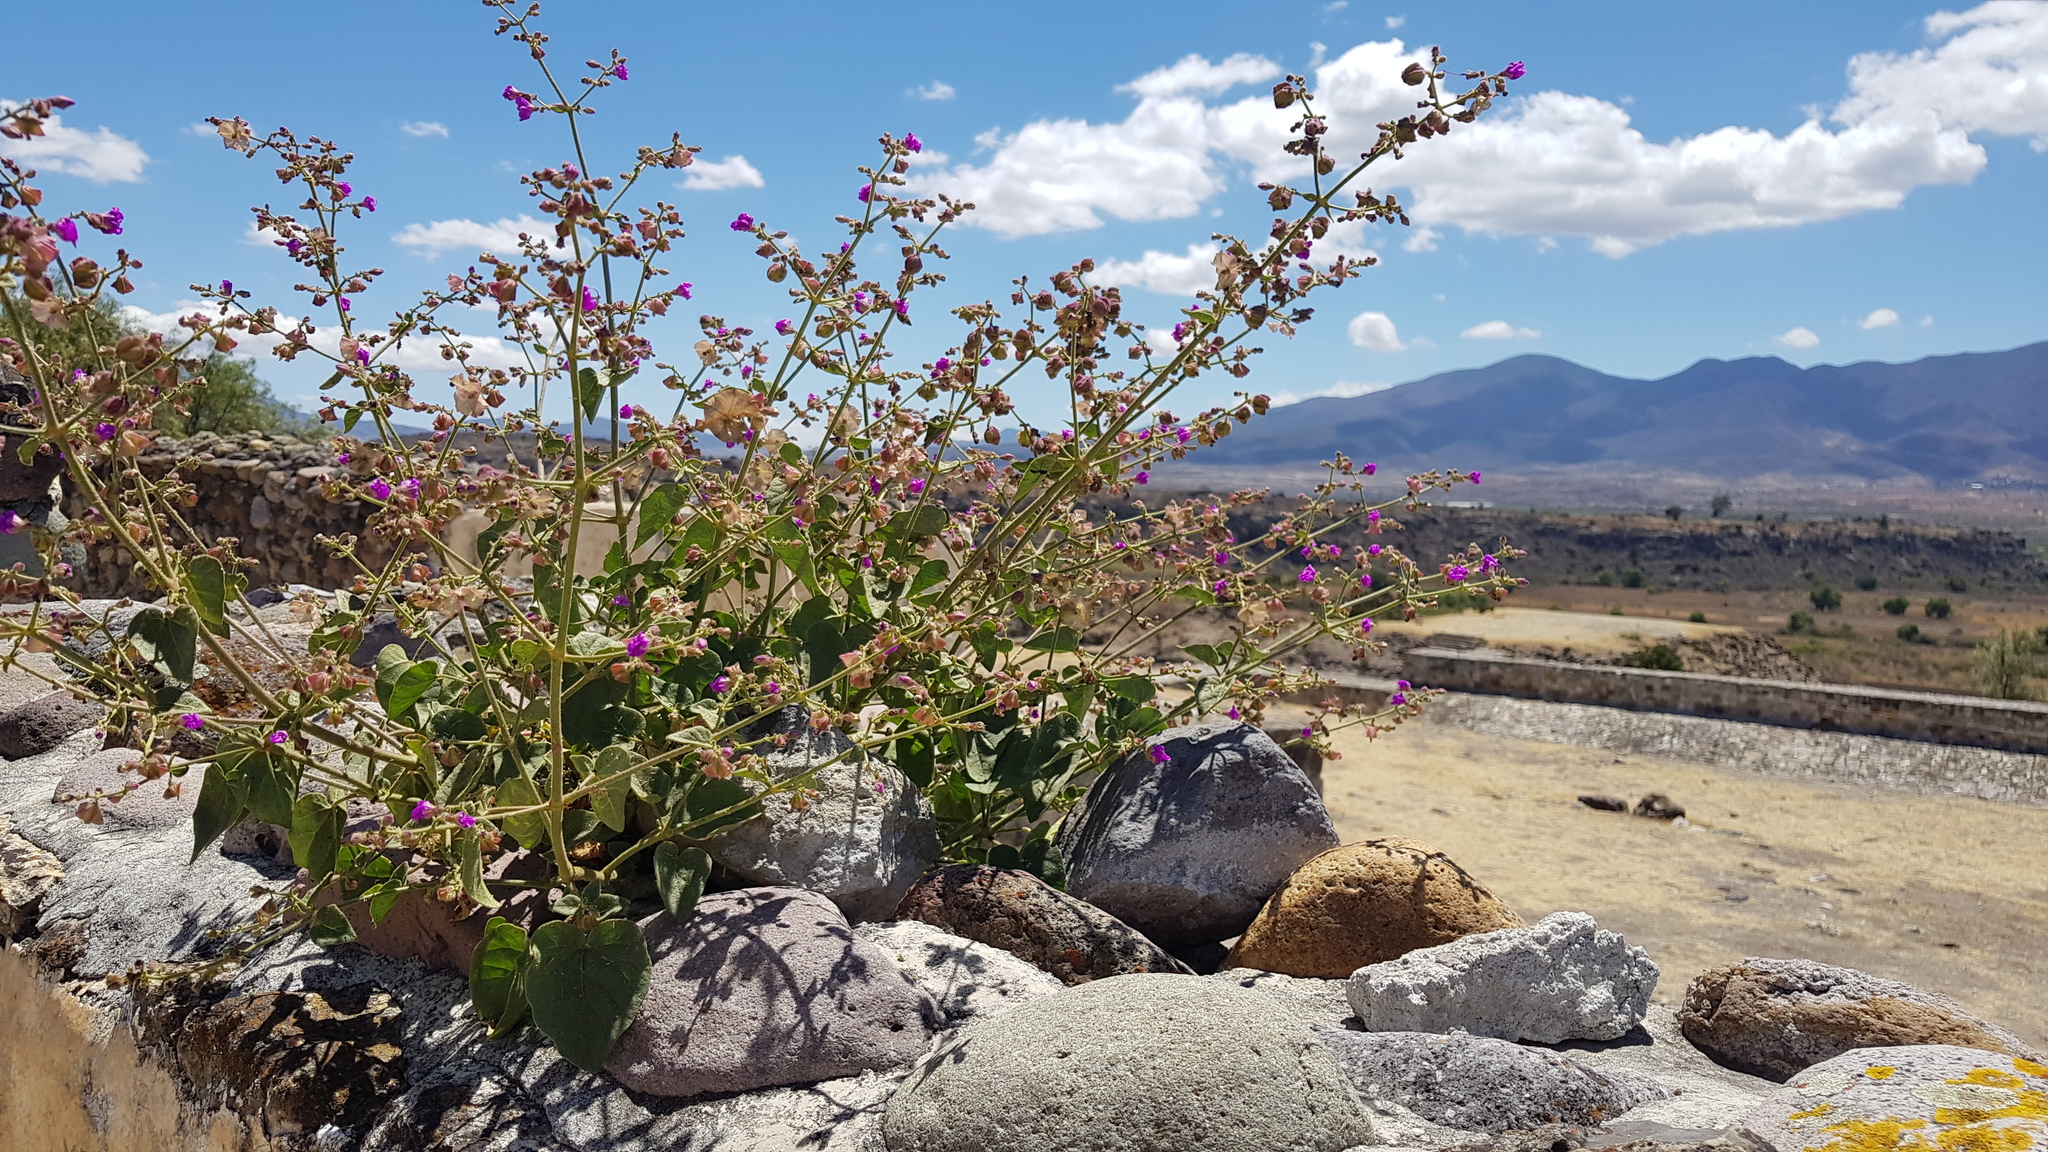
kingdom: Plantae
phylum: Tracheophyta
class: Magnoliopsida
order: Caryophyllales
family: Nyctaginaceae
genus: Mirabilis
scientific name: Mirabilis viscosa
